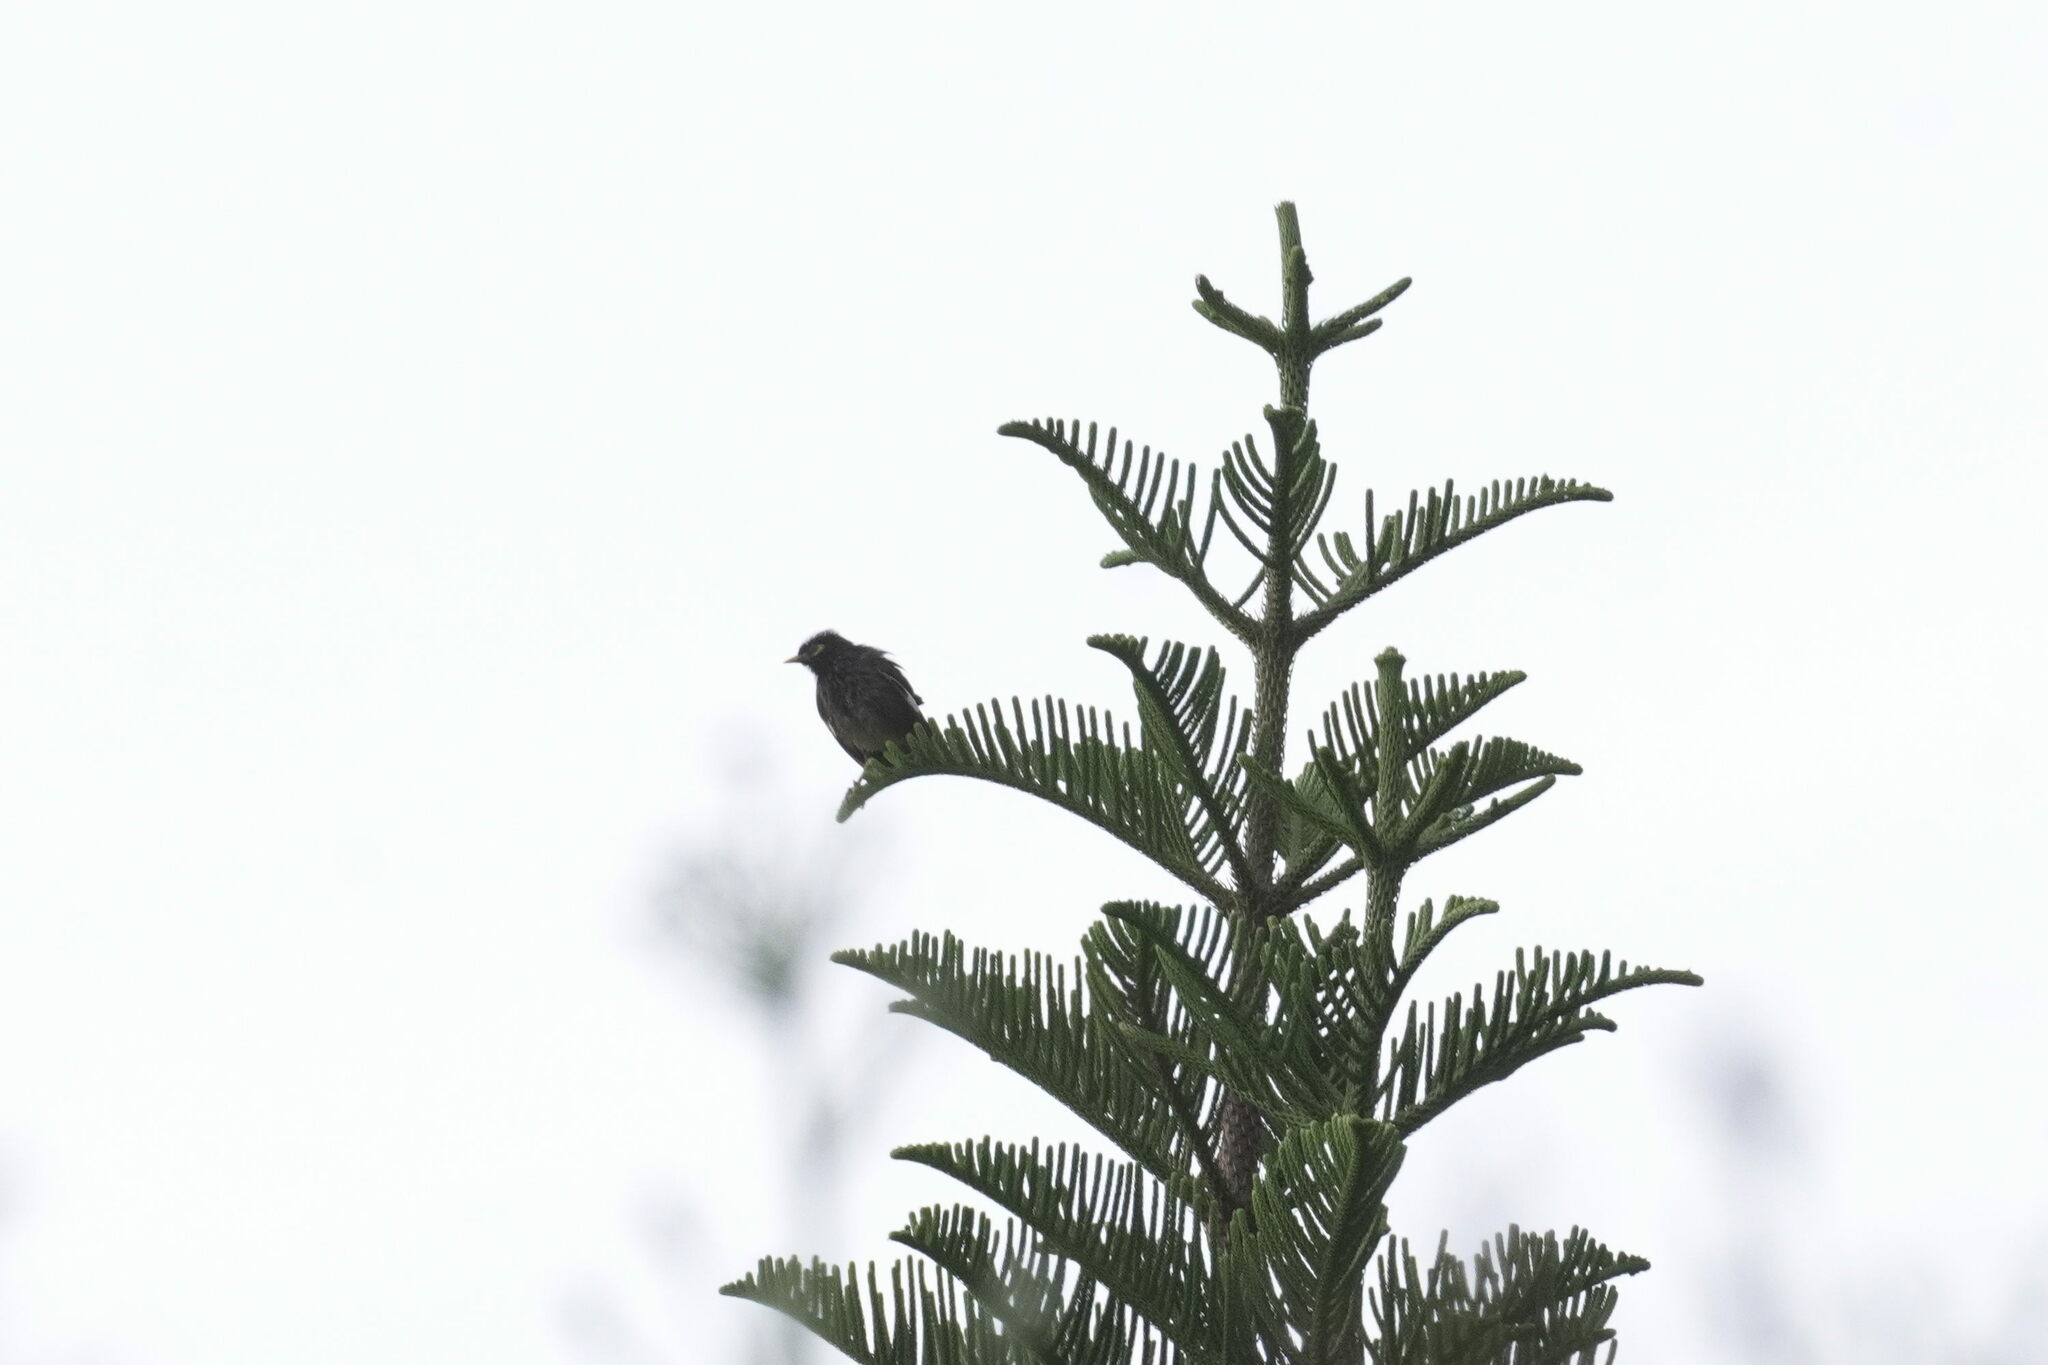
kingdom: Animalia
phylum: Chordata
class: Aves
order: Passeriformes
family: Sturnidae
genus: Acridotheres
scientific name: Acridotheres tristis
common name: Common myna
